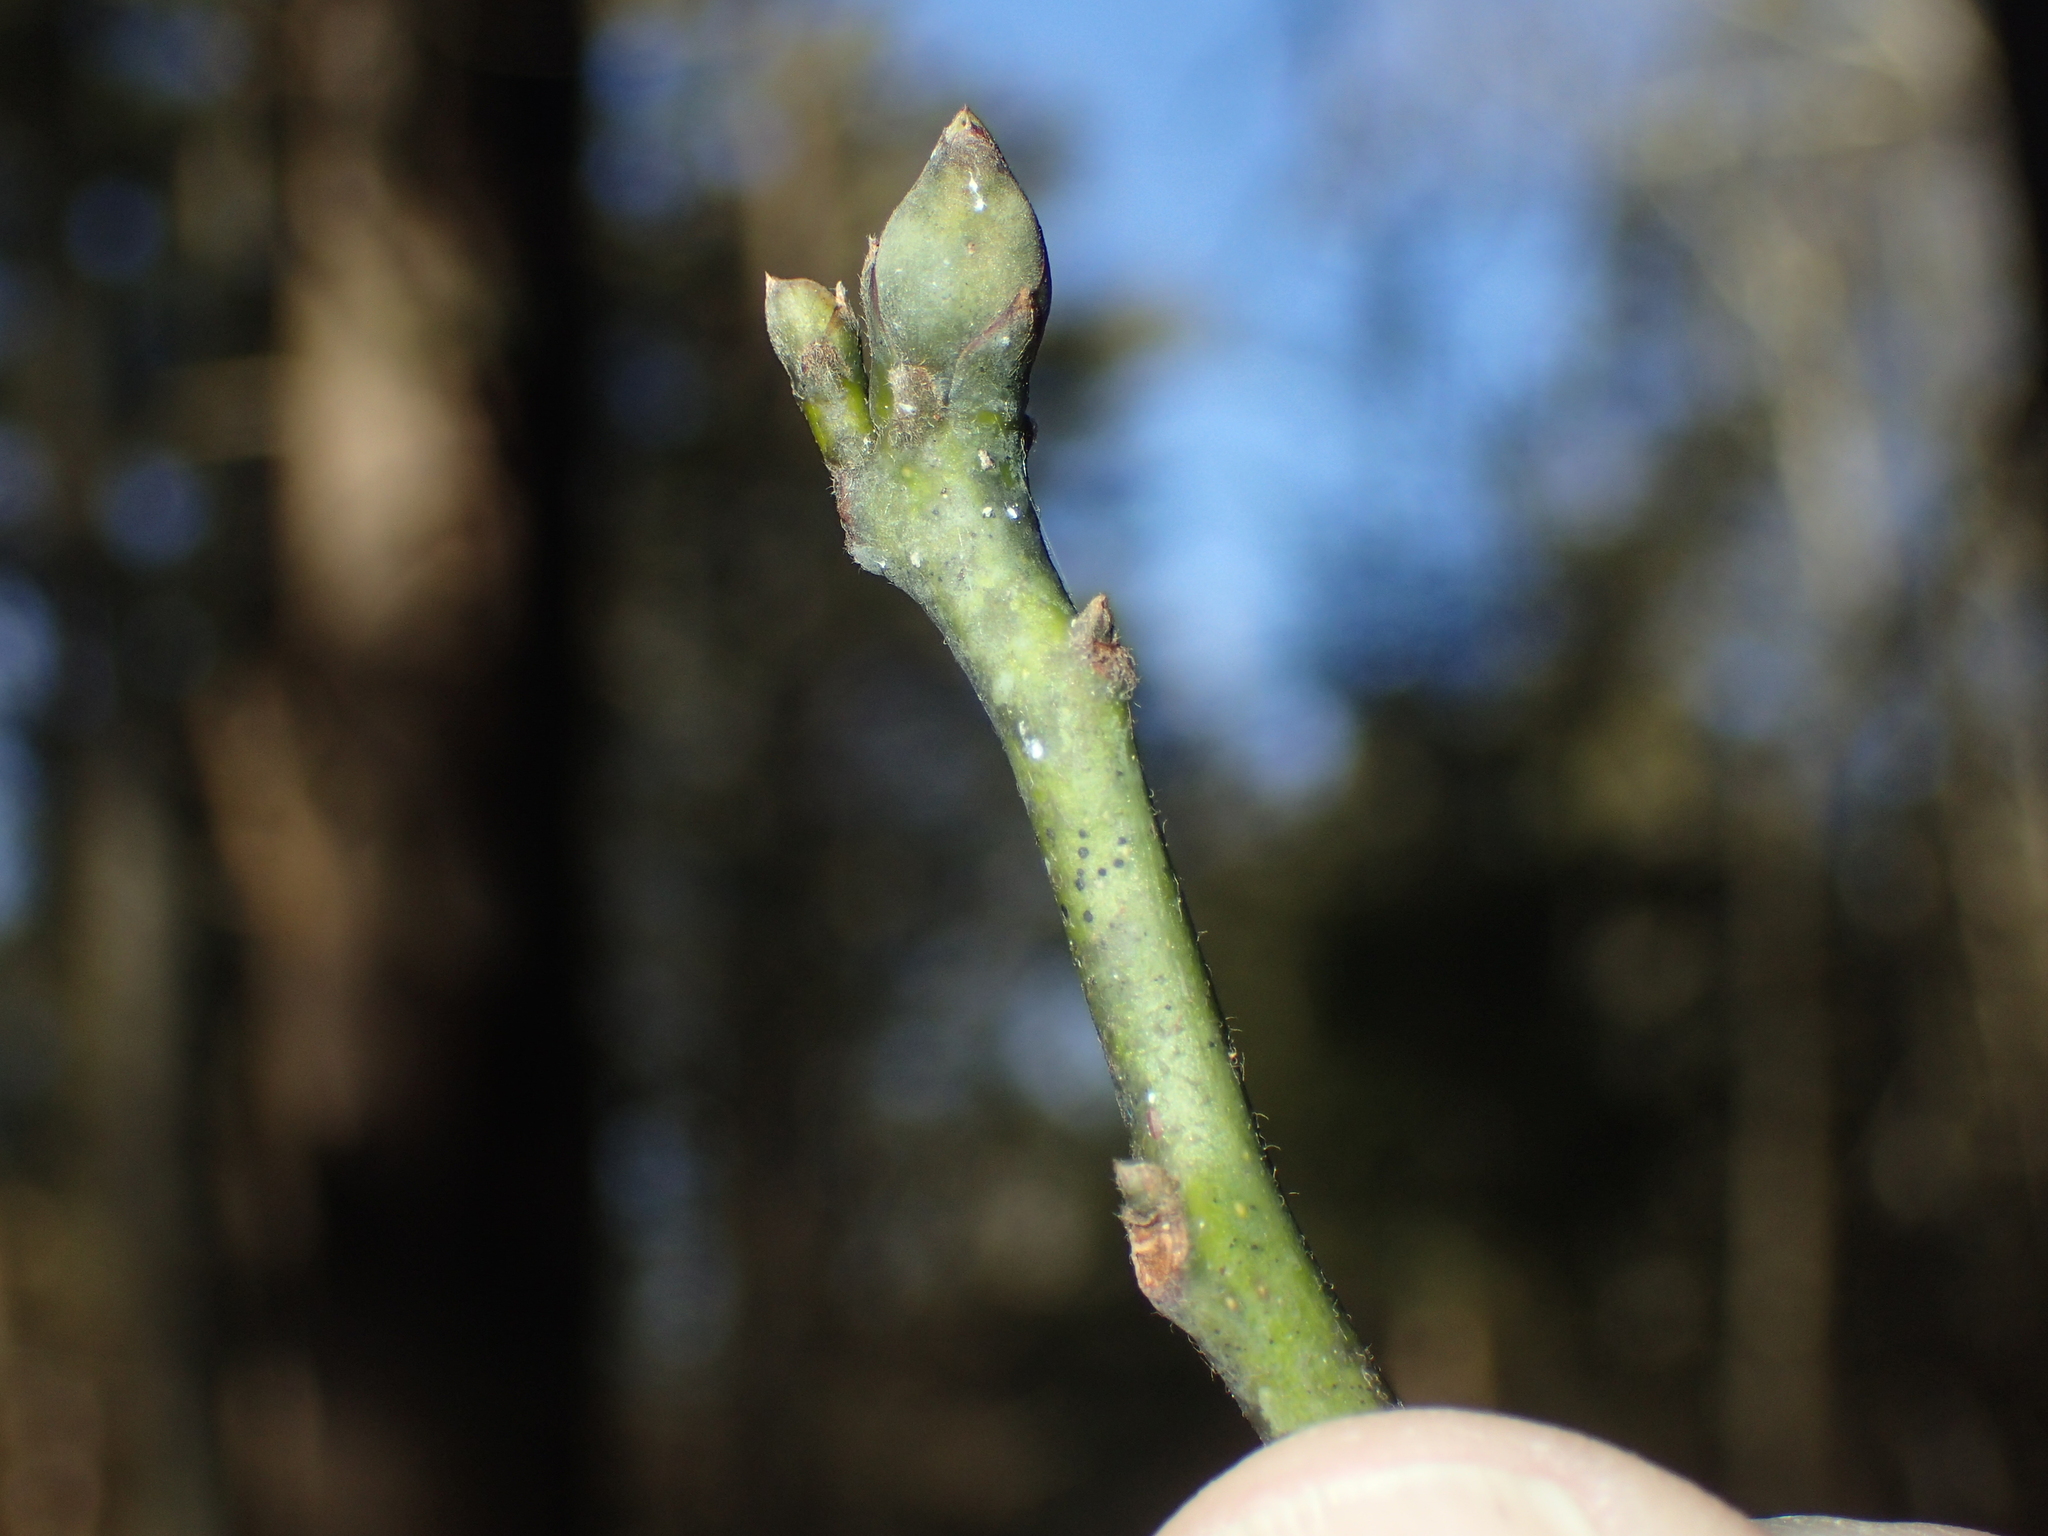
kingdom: Plantae
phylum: Tracheophyta
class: Magnoliopsida
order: Laurales
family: Lauraceae
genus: Sassafras
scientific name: Sassafras albidum
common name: Sassafras
